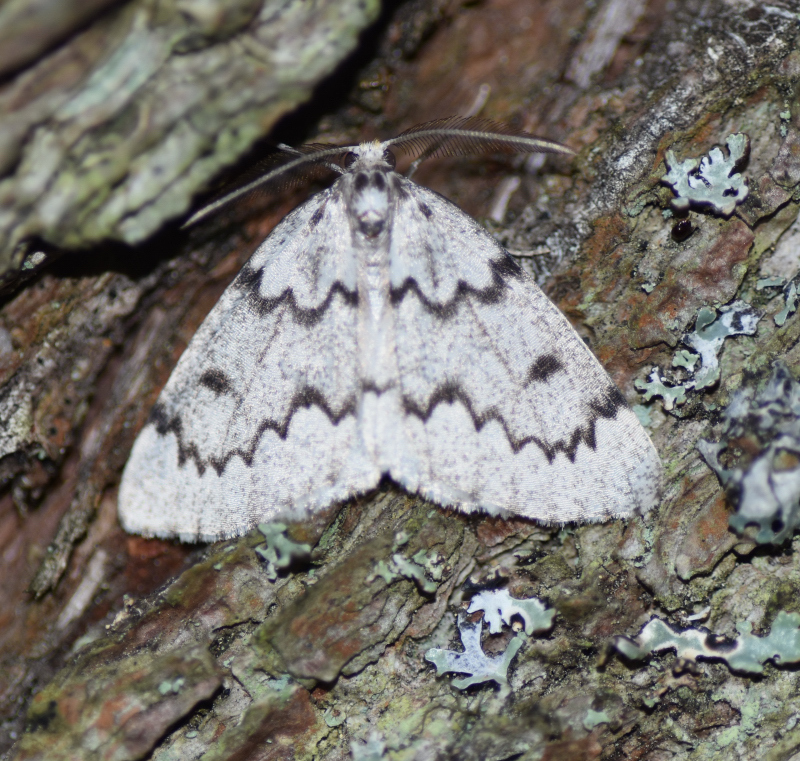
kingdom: Animalia
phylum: Arthropoda
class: Insecta
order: Lepidoptera
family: Geometridae
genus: Nepytia
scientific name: Nepytia canosaria
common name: False hemlock looper
